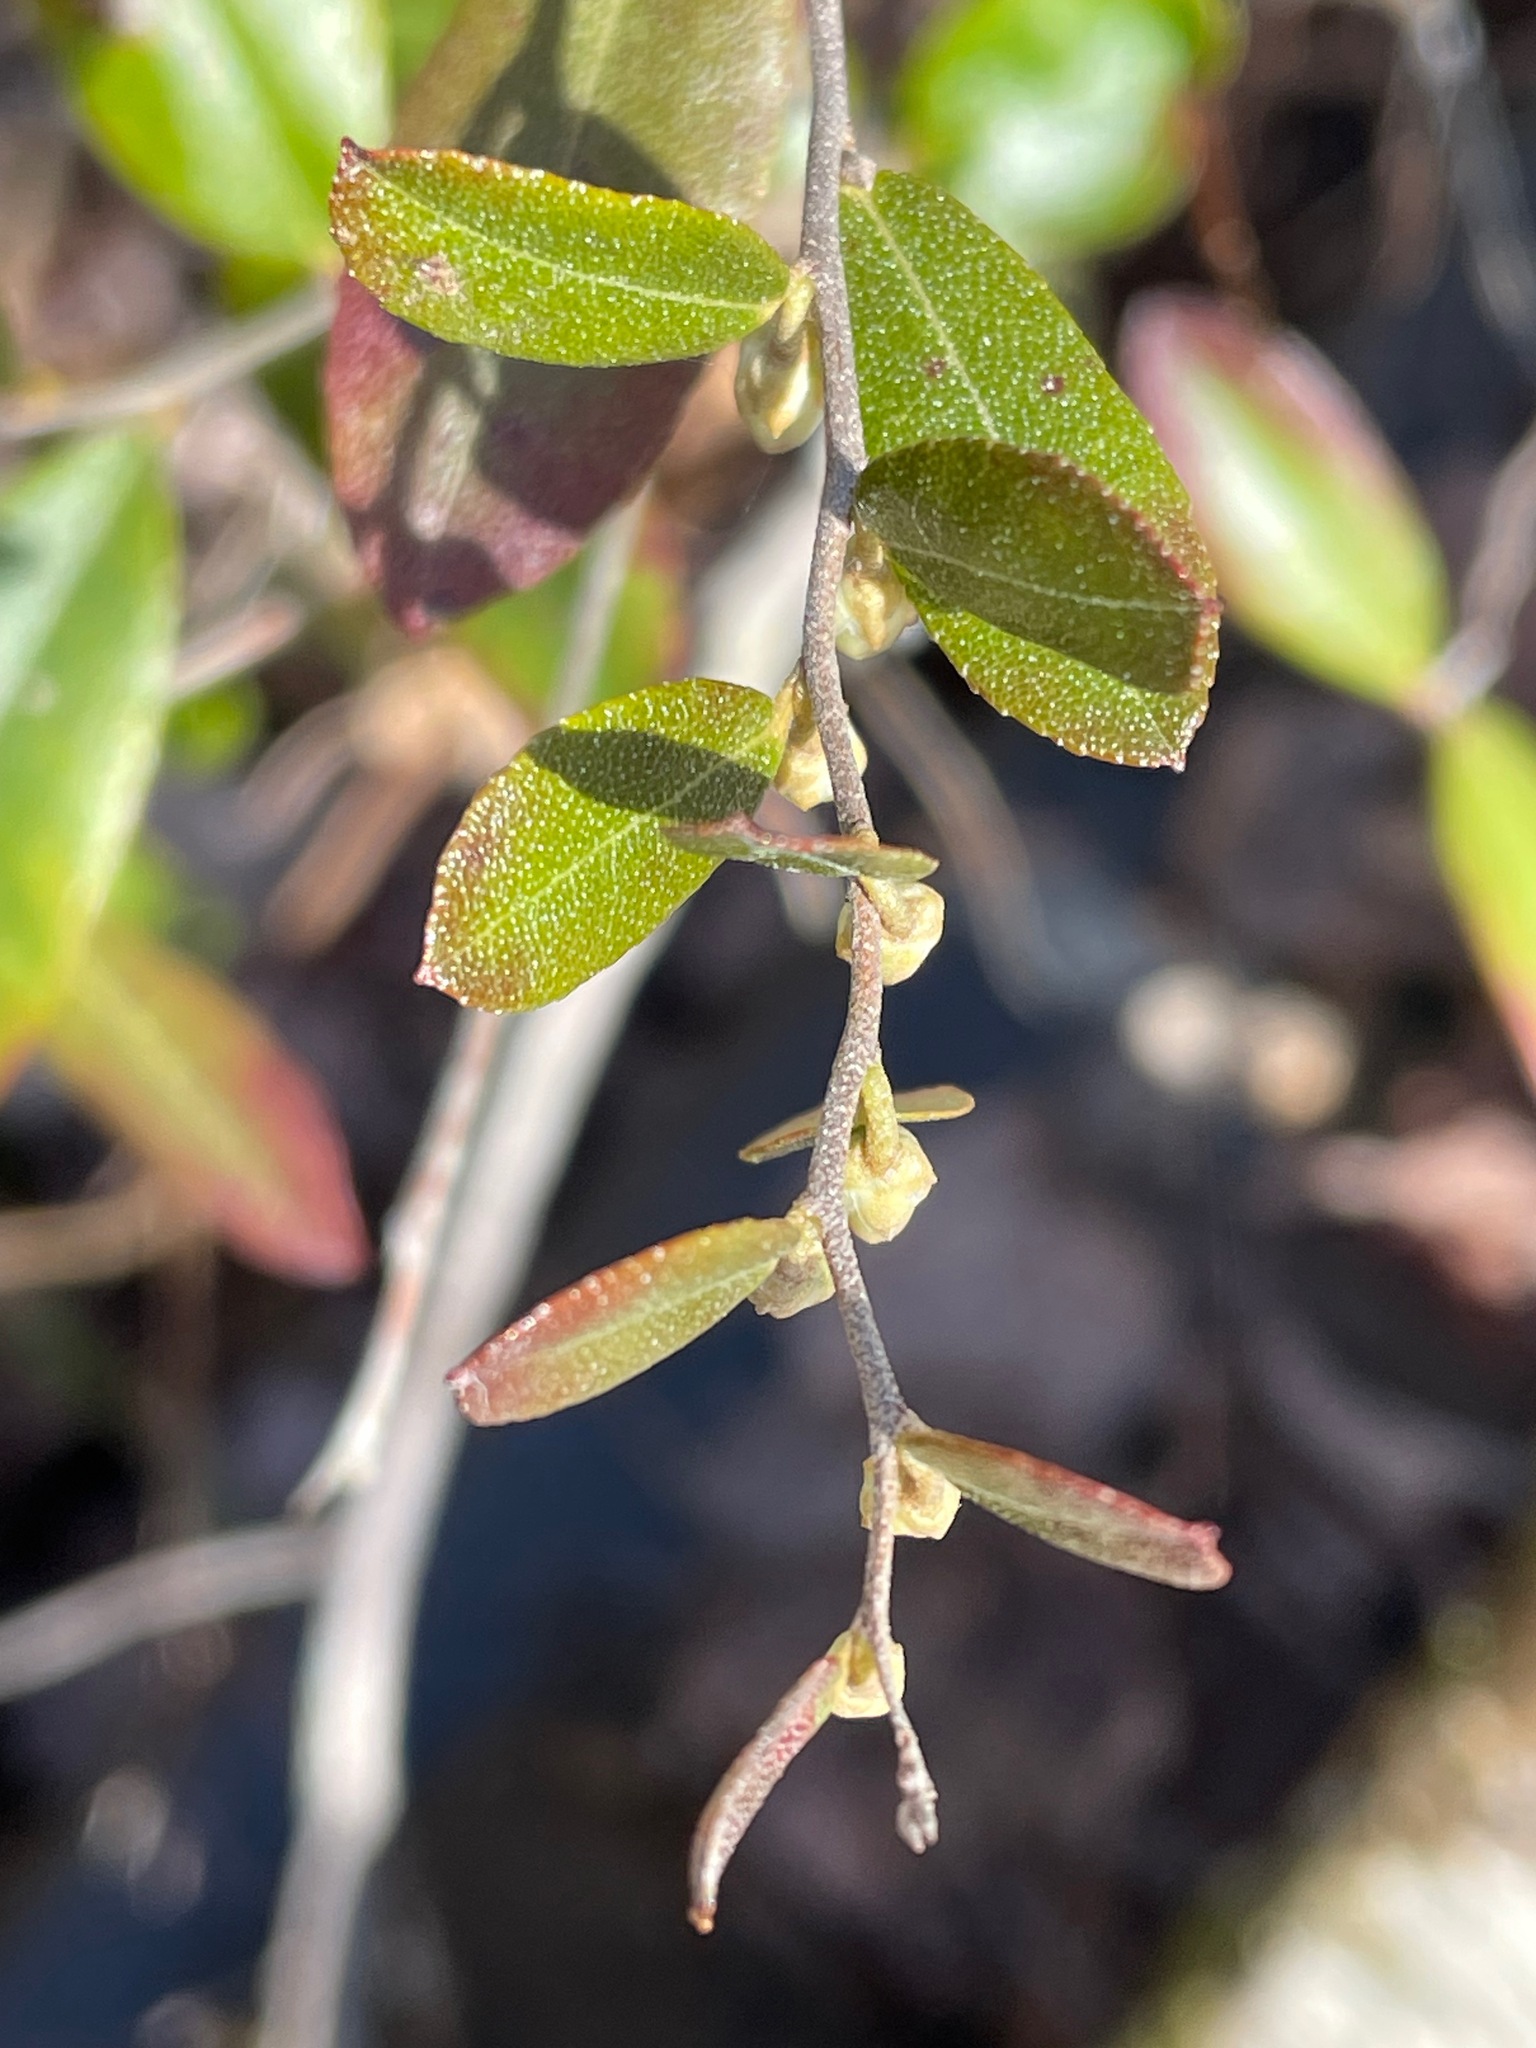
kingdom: Plantae
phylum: Tracheophyta
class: Magnoliopsida
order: Ericales
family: Ericaceae
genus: Chamaedaphne
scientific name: Chamaedaphne calyculata
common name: Leatherleaf
